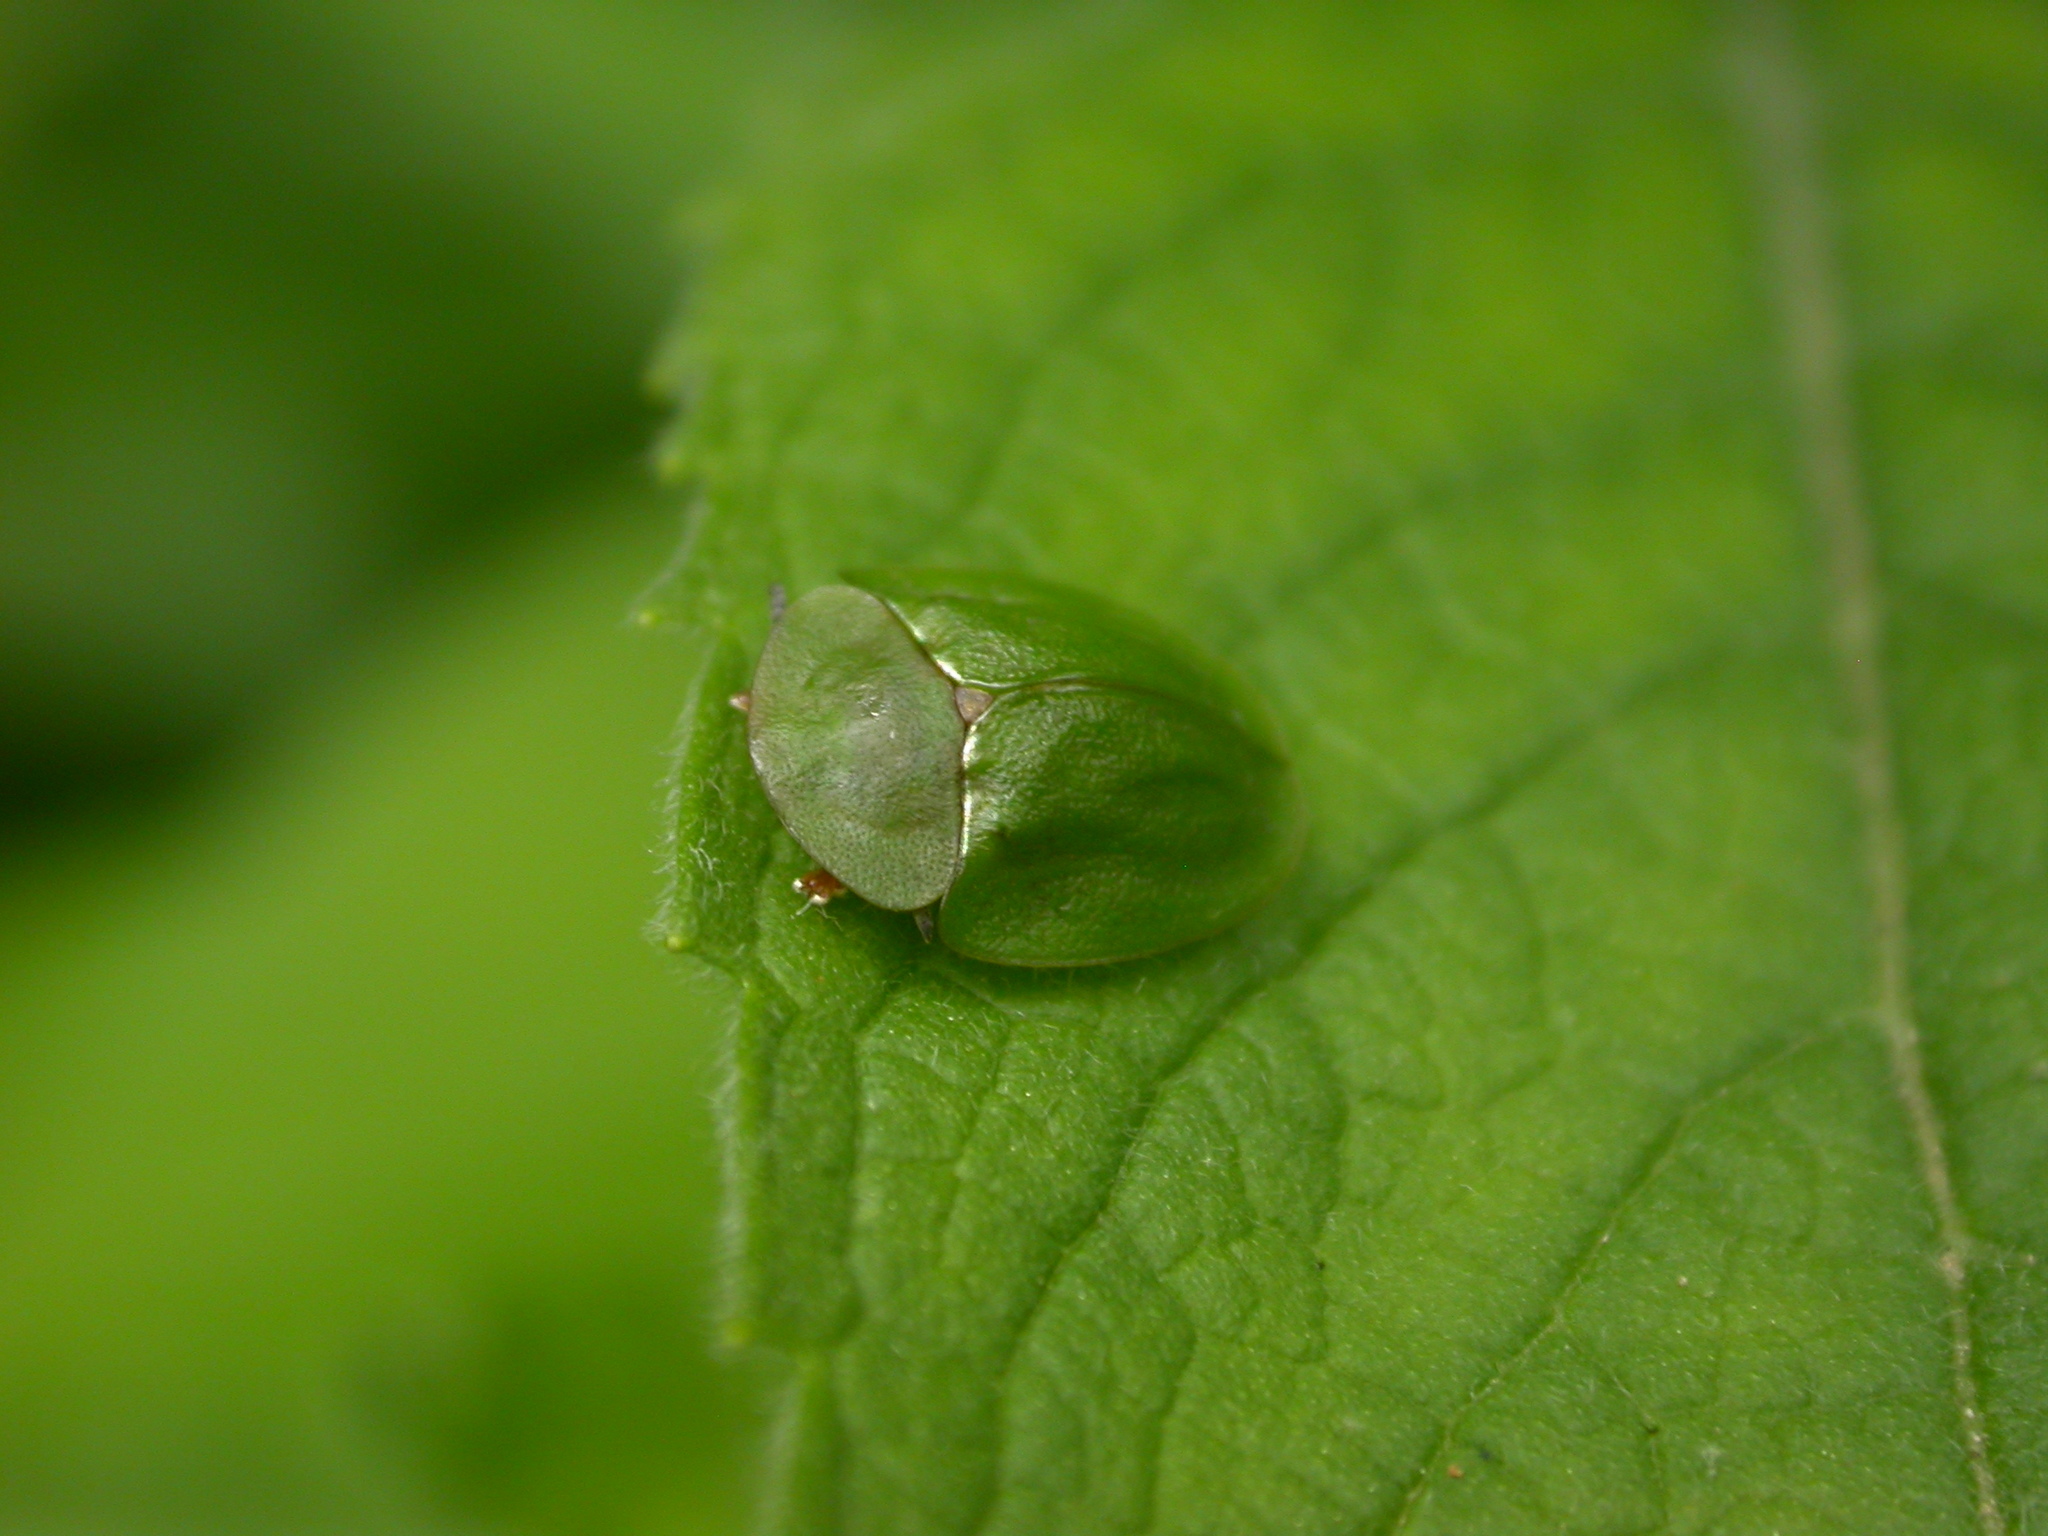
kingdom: Animalia
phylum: Arthropoda
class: Insecta
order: Coleoptera
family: Chrysomelidae
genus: Cassida
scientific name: Cassida viridis
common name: Green tortoise beetle
